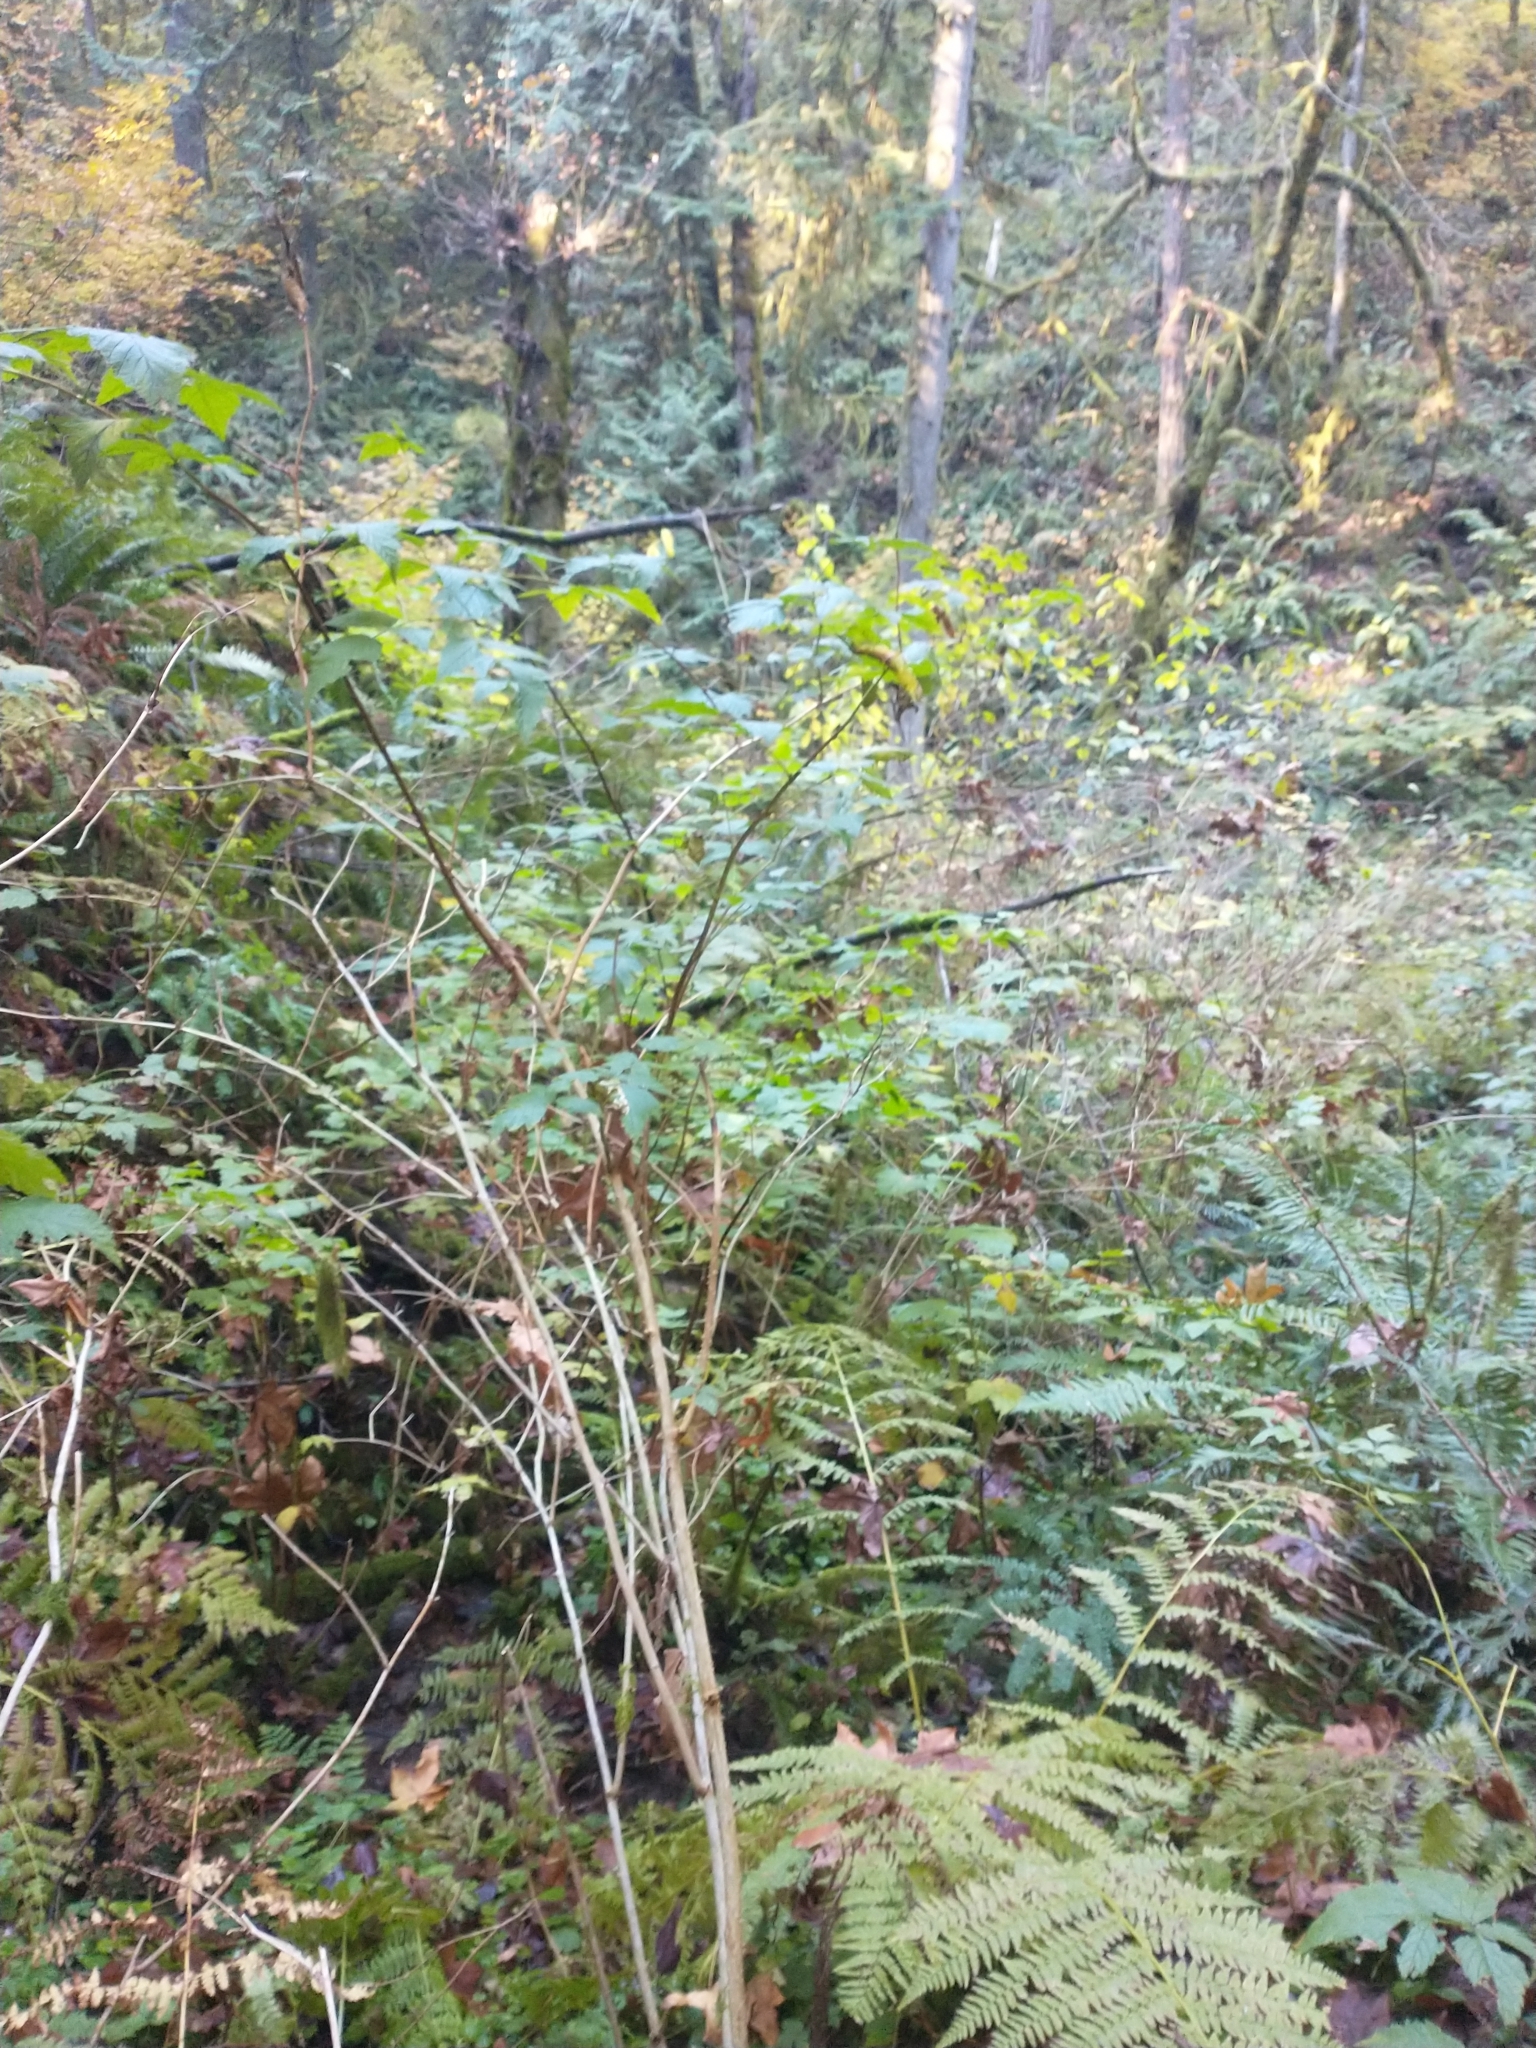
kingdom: Plantae
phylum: Tracheophyta
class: Magnoliopsida
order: Rosales
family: Rosaceae
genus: Rubus
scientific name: Rubus spectabilis
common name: Salmonberry
